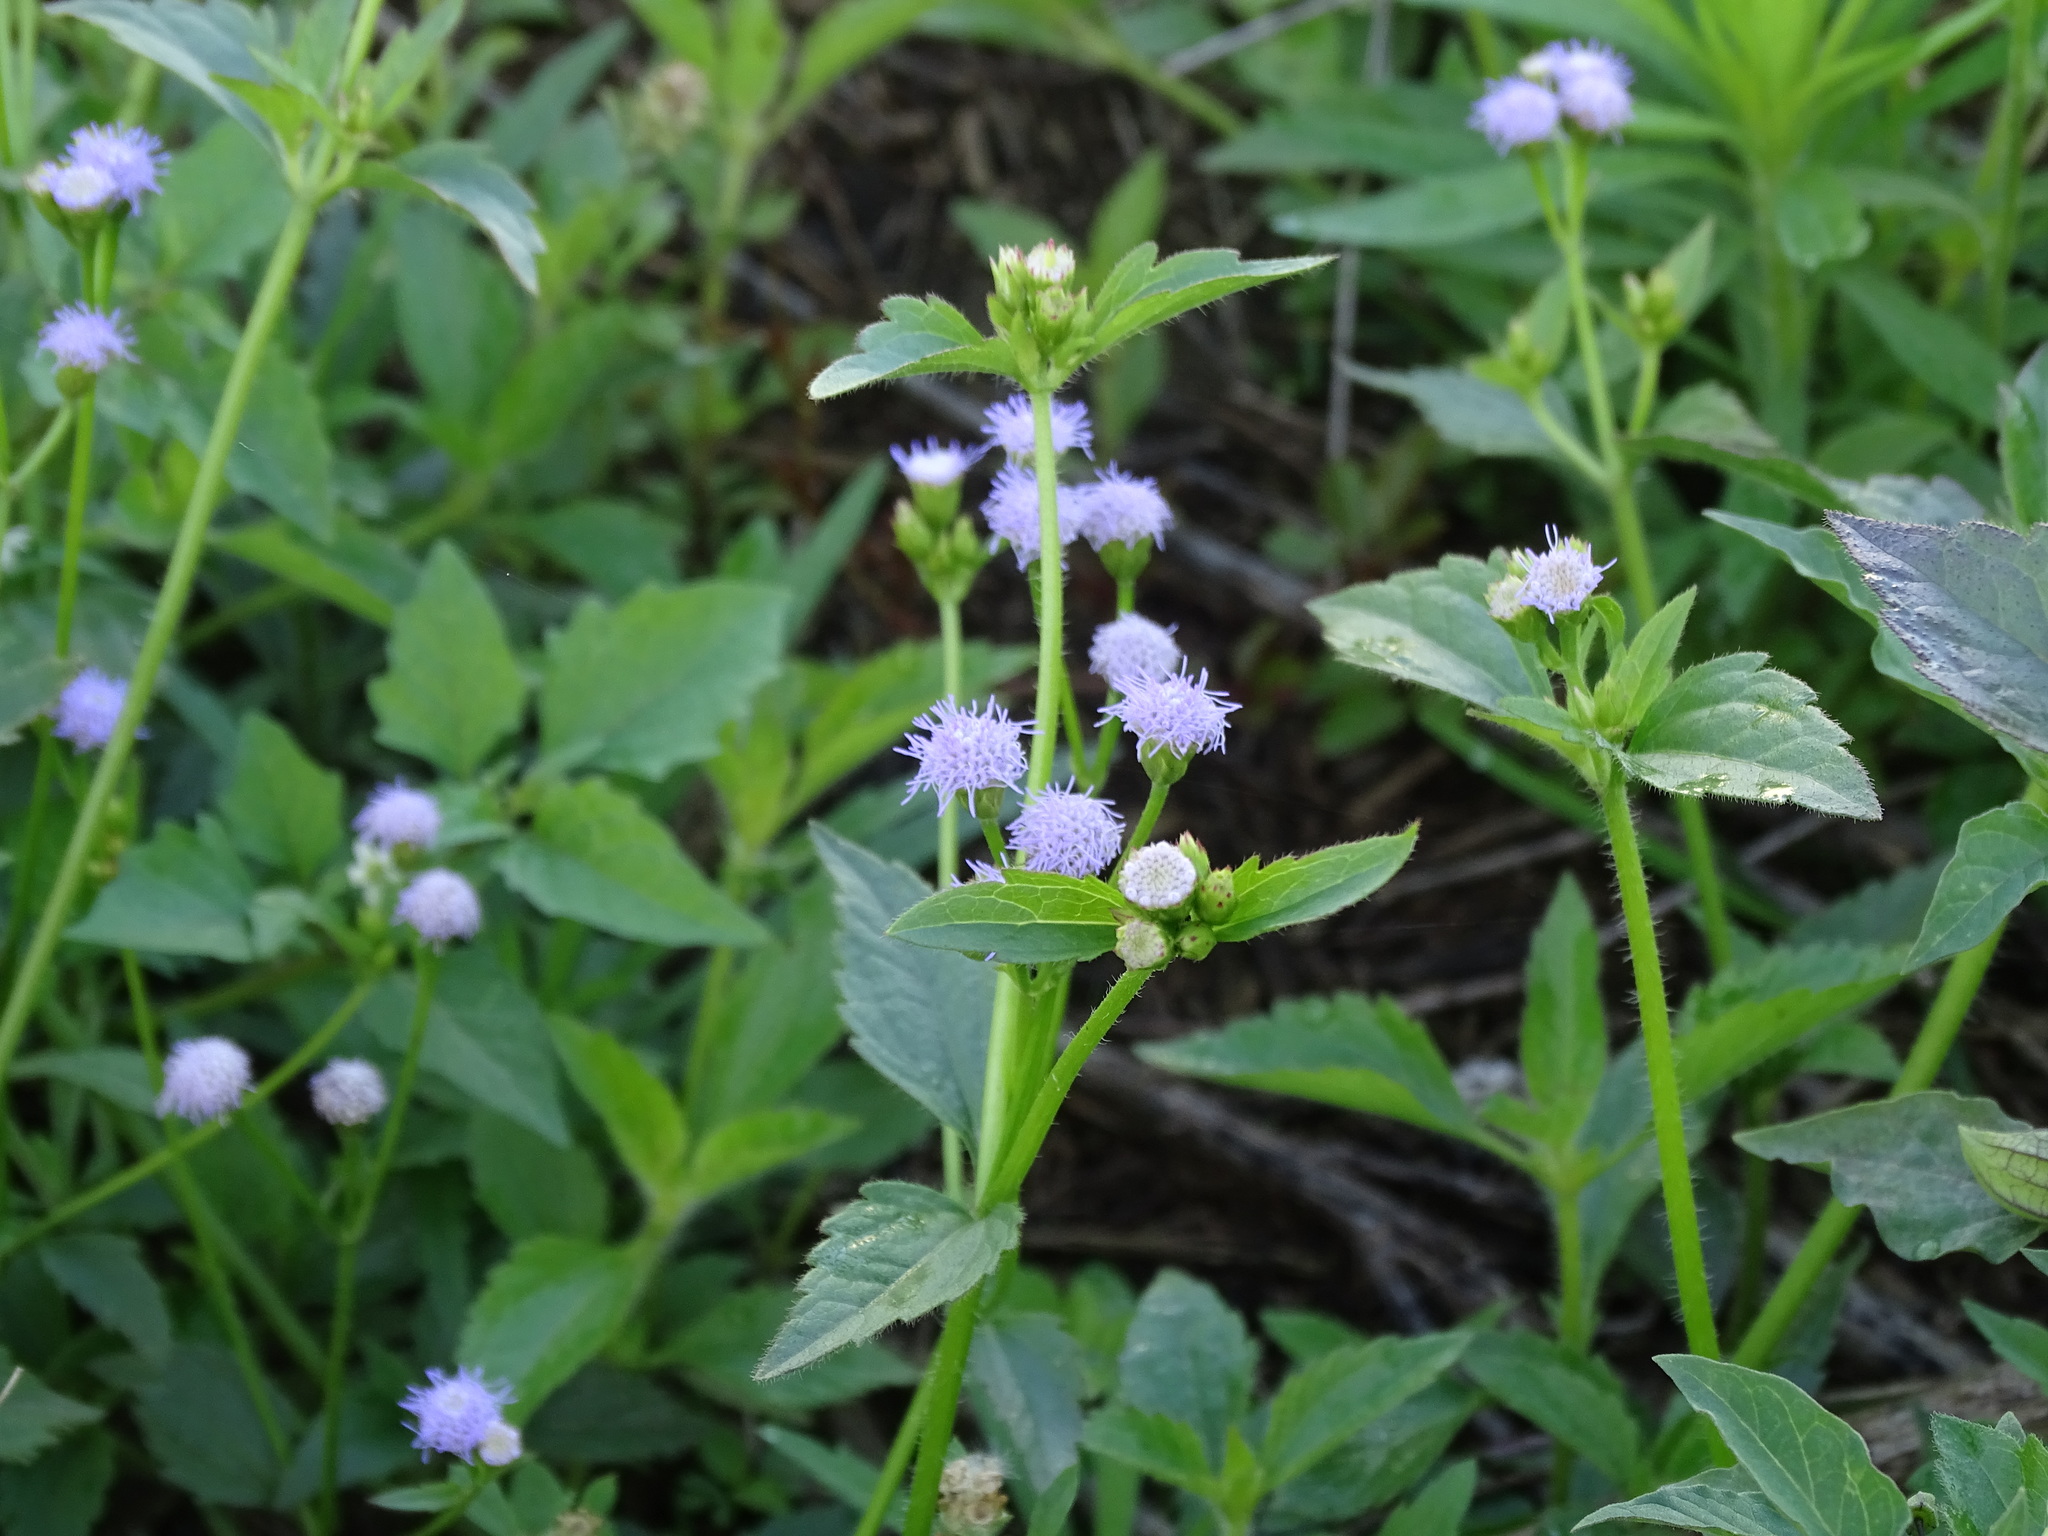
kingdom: Plantae
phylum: Tracheophyta
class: Magnoliopsida
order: Asterales
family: Asteraceae
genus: Praxelis
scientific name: Praxelis clematidea
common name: Praxelis
